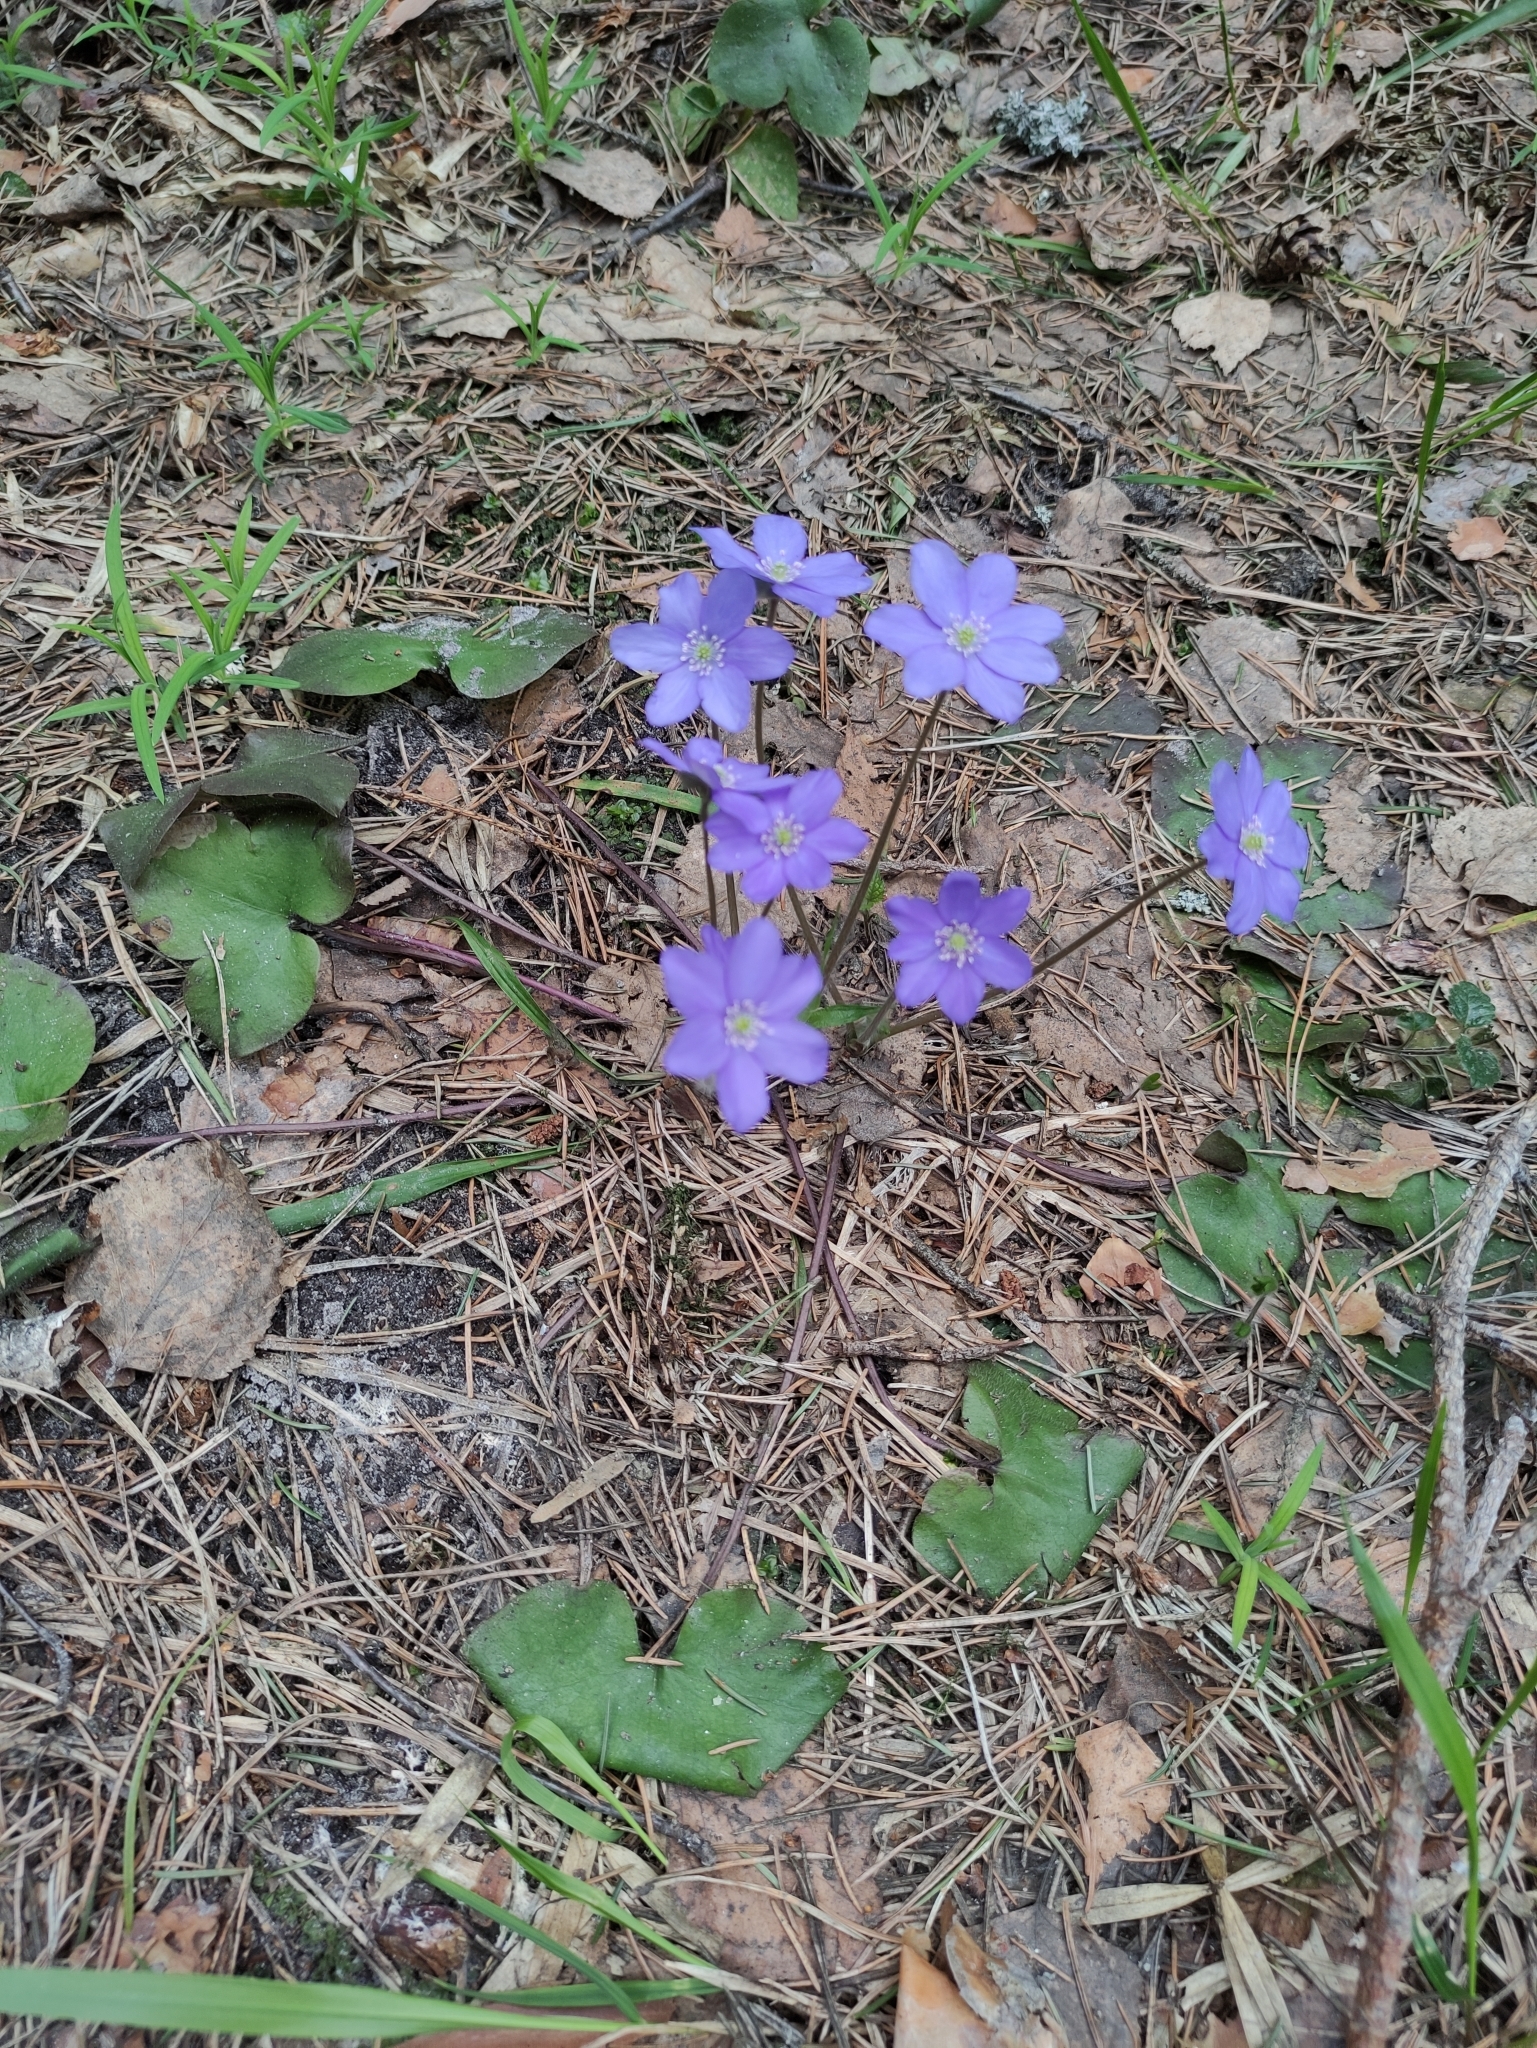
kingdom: Plantae
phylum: Tracheophyta
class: Magnoliopsida
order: Ranunculales
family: Ranunculaceae
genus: Hepatica
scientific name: Hepatica nobilis
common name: Liverleaf
